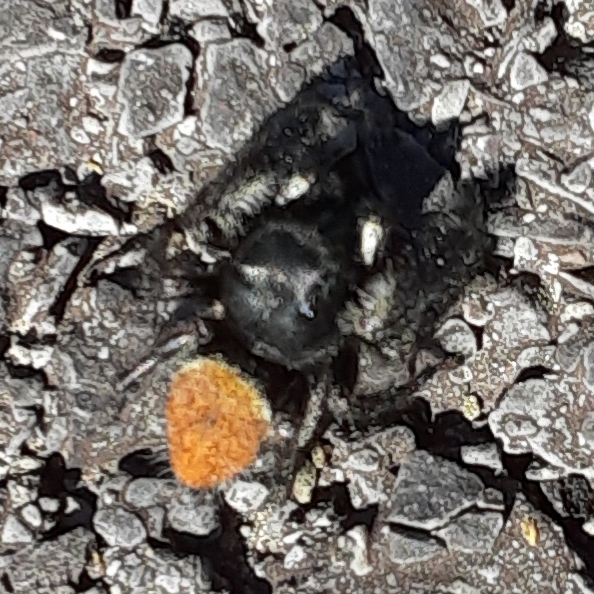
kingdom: Animalia
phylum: Arthropoda
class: Arachnida
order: Araneae
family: Salticidae
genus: Phidippus
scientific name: Phidippus princeps
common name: Grayish jumping spider
